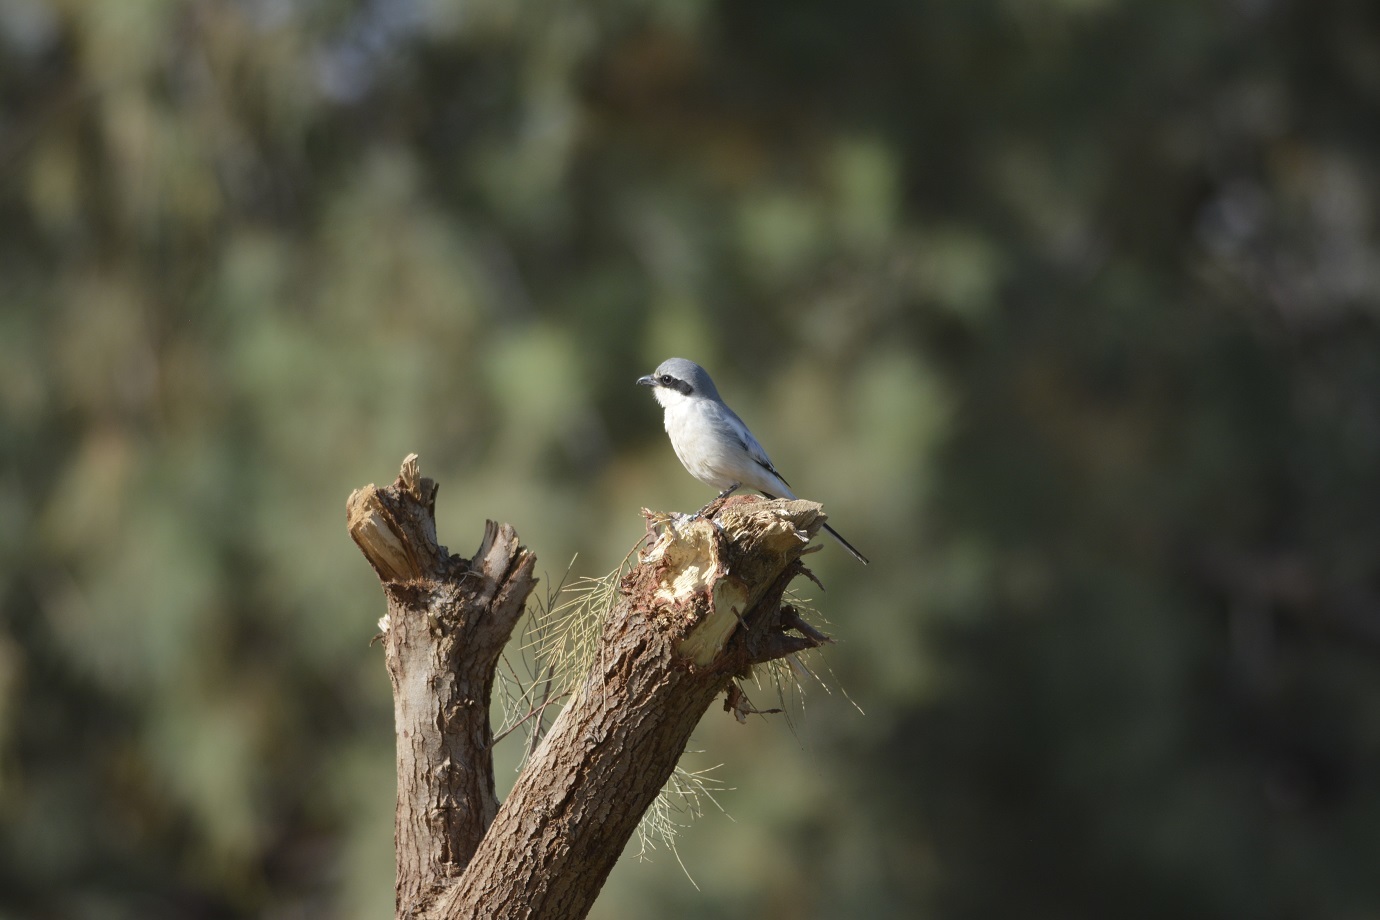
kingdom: Animalia
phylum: Chordata
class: Aves
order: Passeriformes
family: Laniidae
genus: Lanius
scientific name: Lanius excubitor
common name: Great grey shrike
